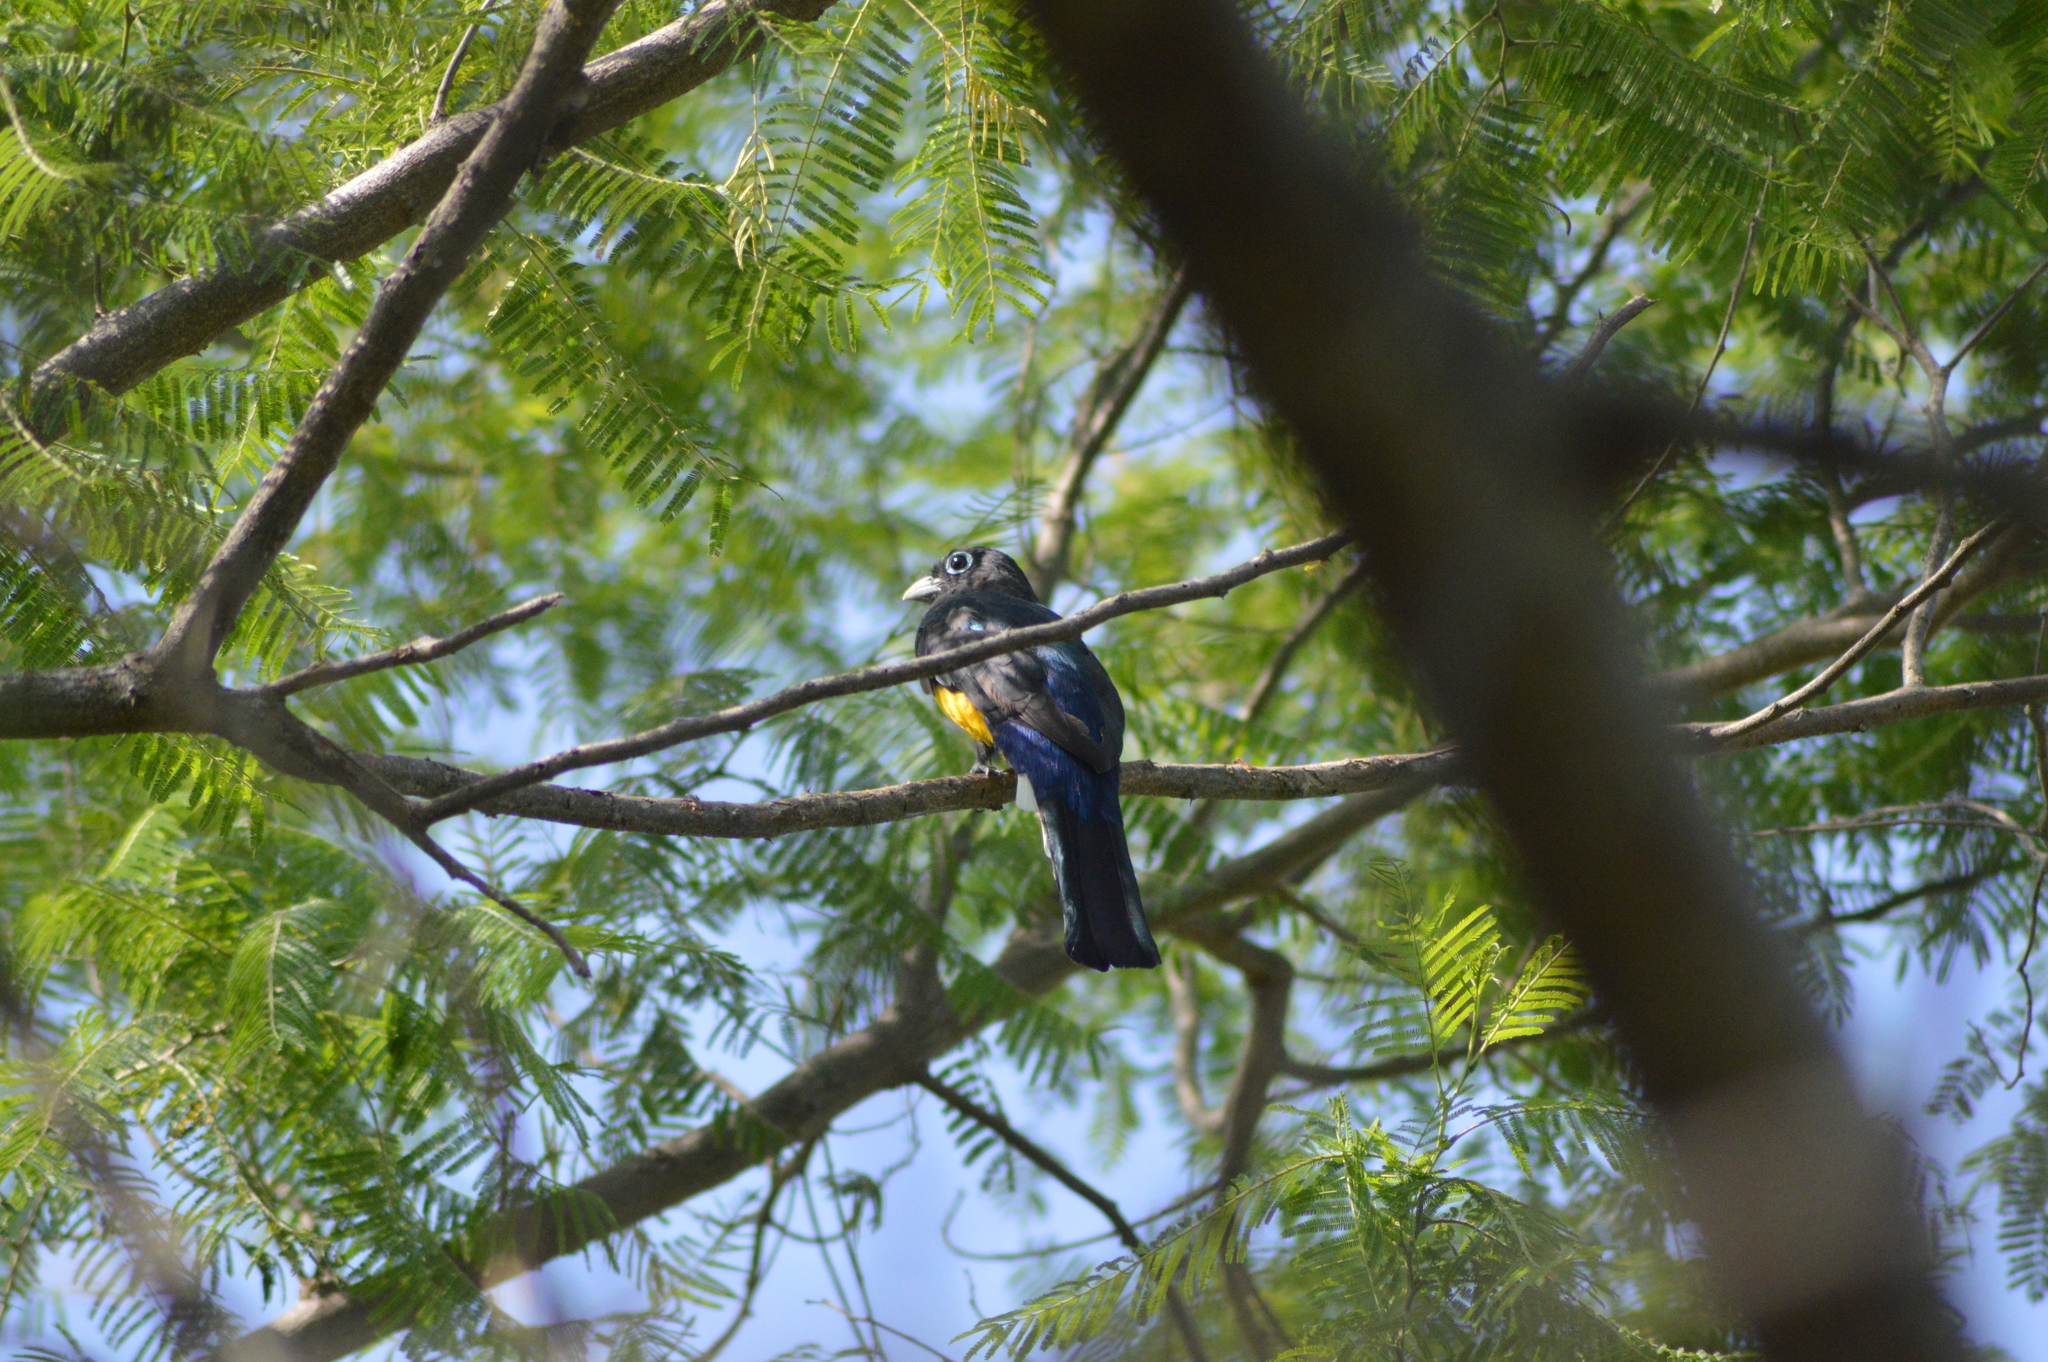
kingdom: Animalia
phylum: Chordata
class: Aves
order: Trogoniformes
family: Trogonidae
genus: Trogon
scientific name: Trogon melanocephalus
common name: Black-headed trogon
